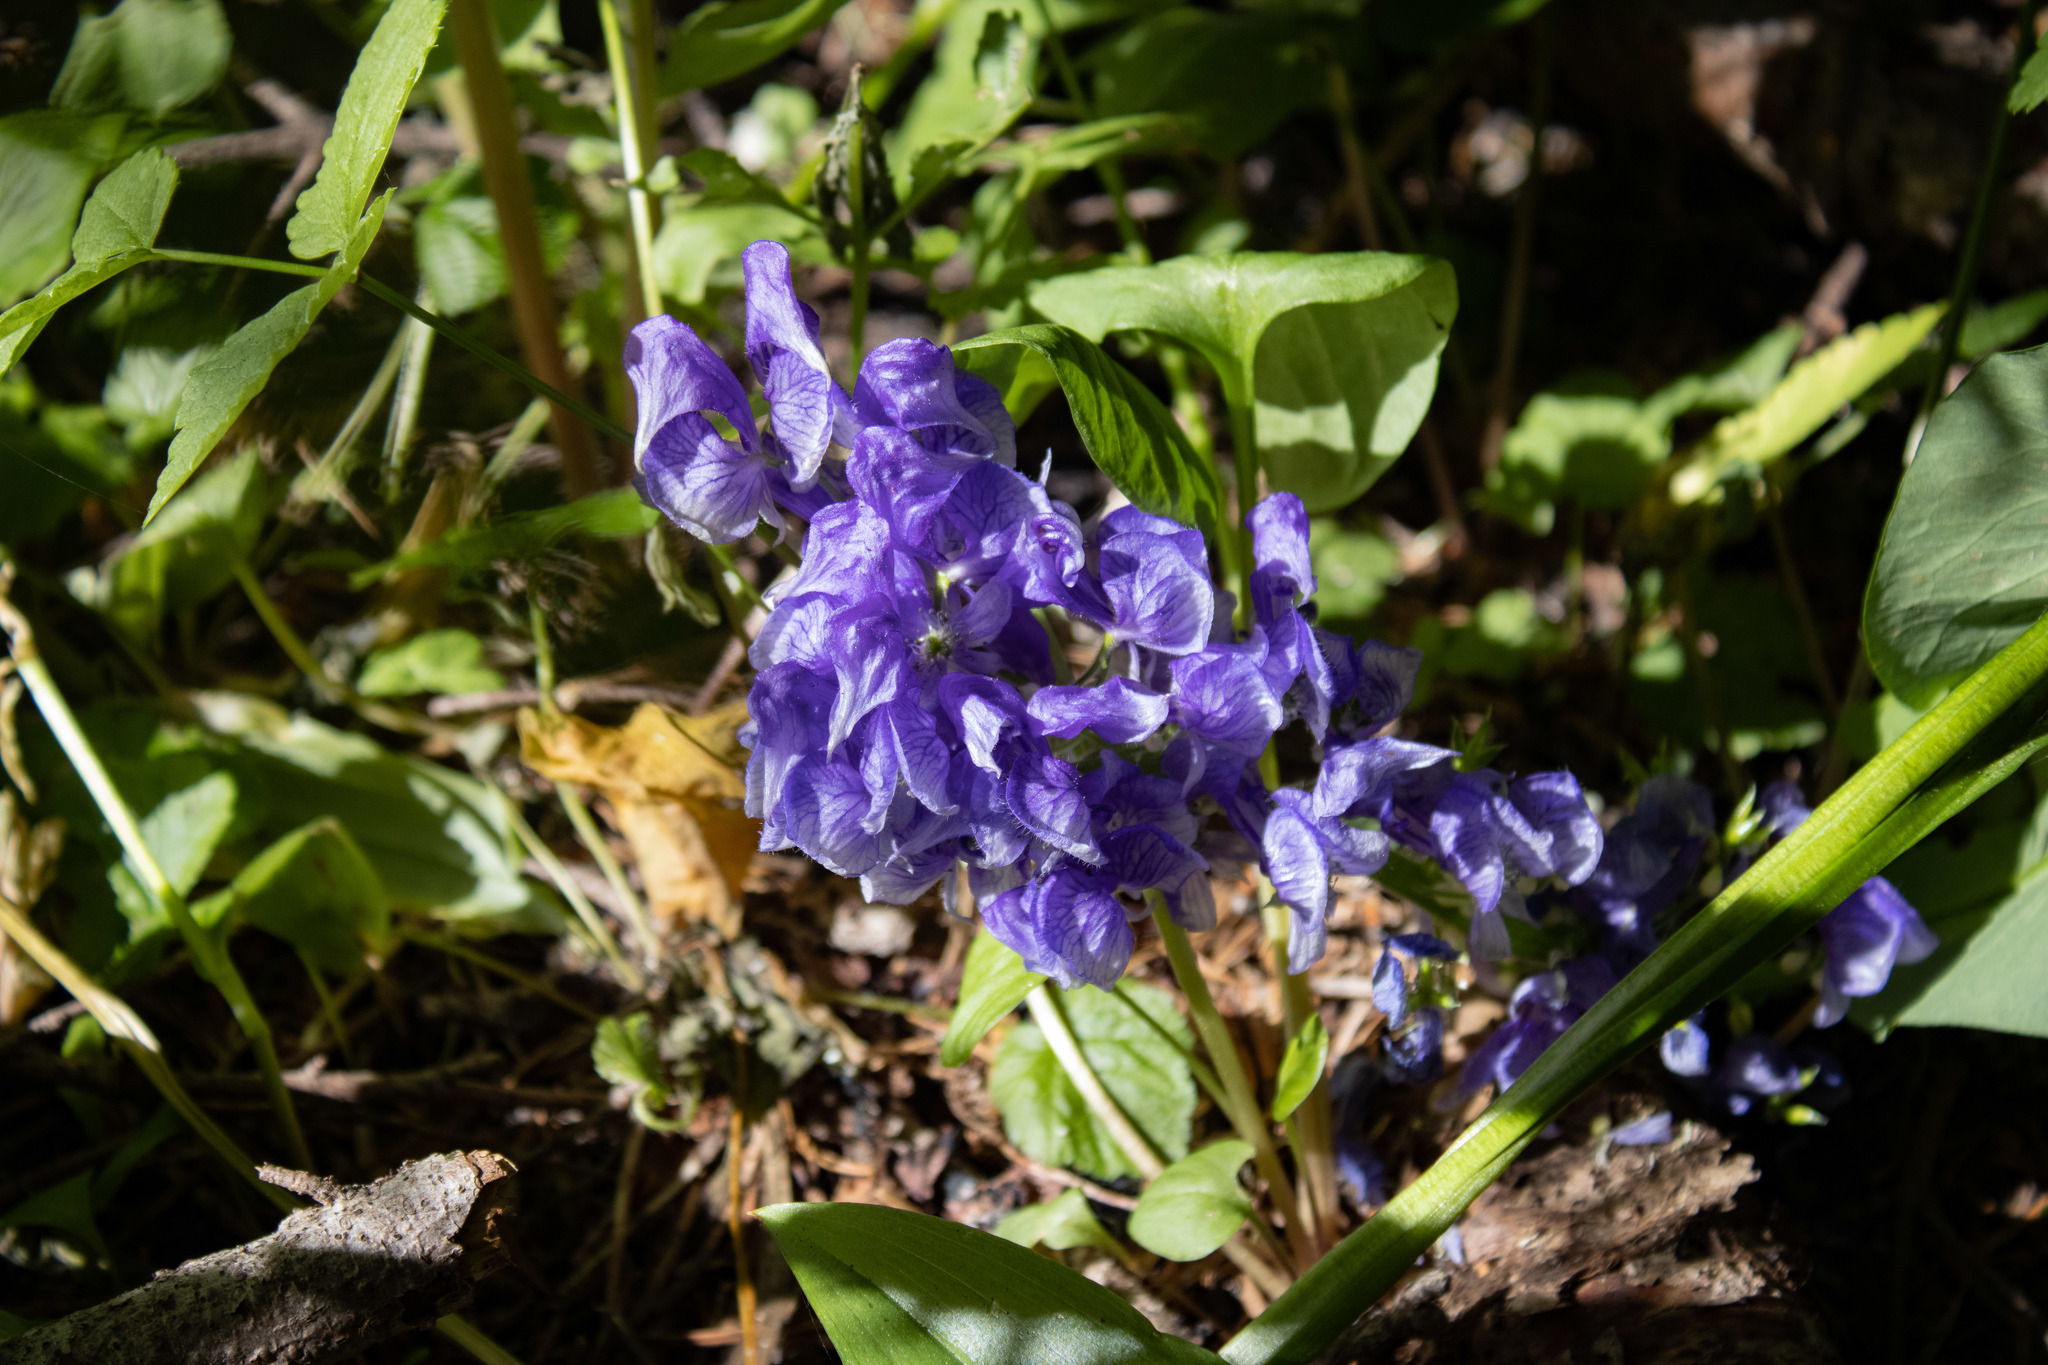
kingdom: Plantae
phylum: Tracheophyta
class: Magnoliopsida
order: Ranunculales
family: Ranunculaceae
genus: Aconitum
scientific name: Aconitum columbianum
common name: Columbia aconite
